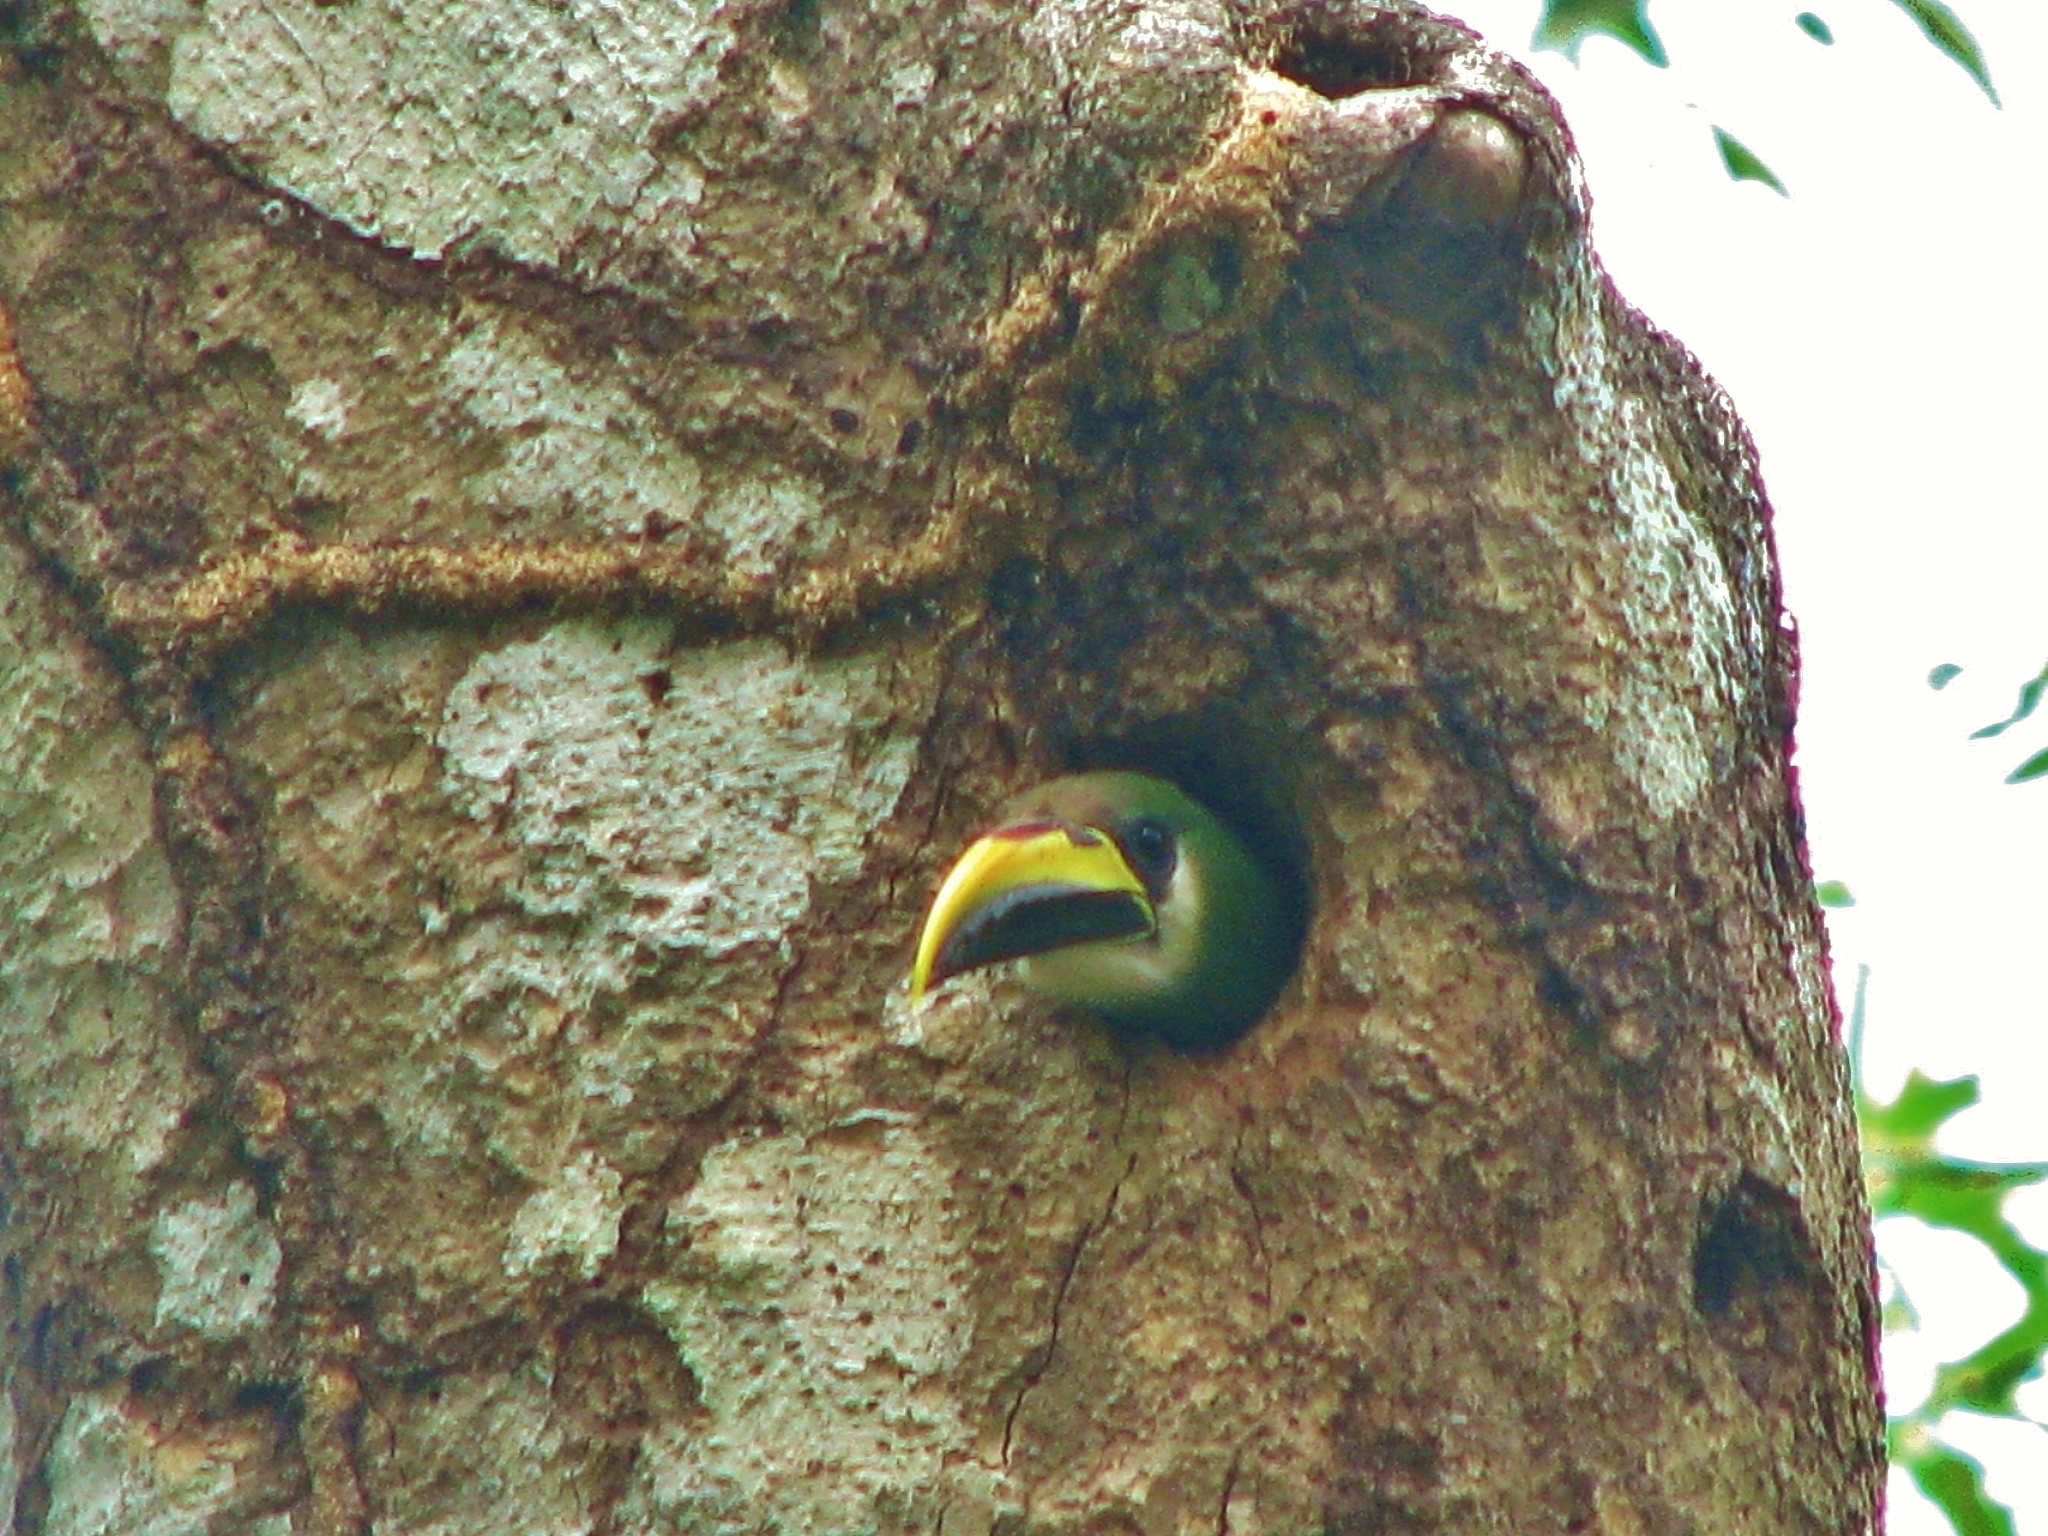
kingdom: Animalia
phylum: Chordata
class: Aves
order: Piciformes
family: Ramphastidae
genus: Aulacorhynchus
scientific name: Aulacorhynchus prasinus
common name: Emerald toucanet
